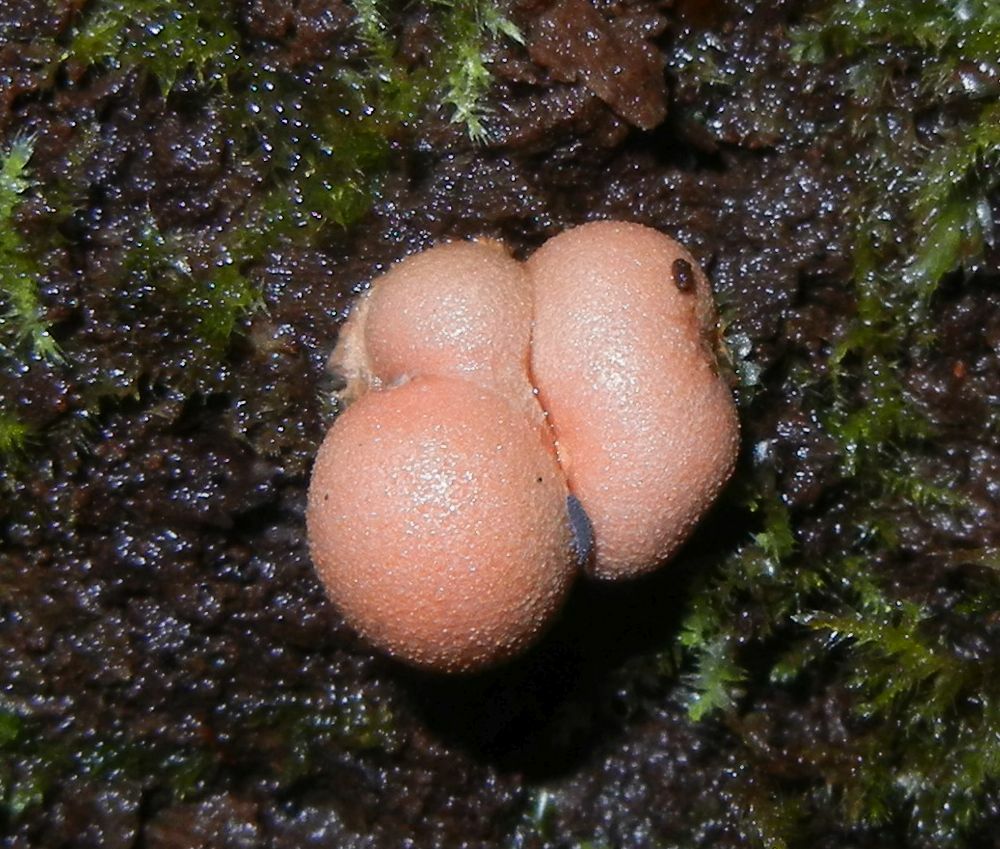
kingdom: Protozoa
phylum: Mycetozoa
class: Myxomycetes
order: Cribrariales
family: Tubiferaceae
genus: Lycogala
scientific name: Lycogala epidendrum
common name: Wolf's milk
